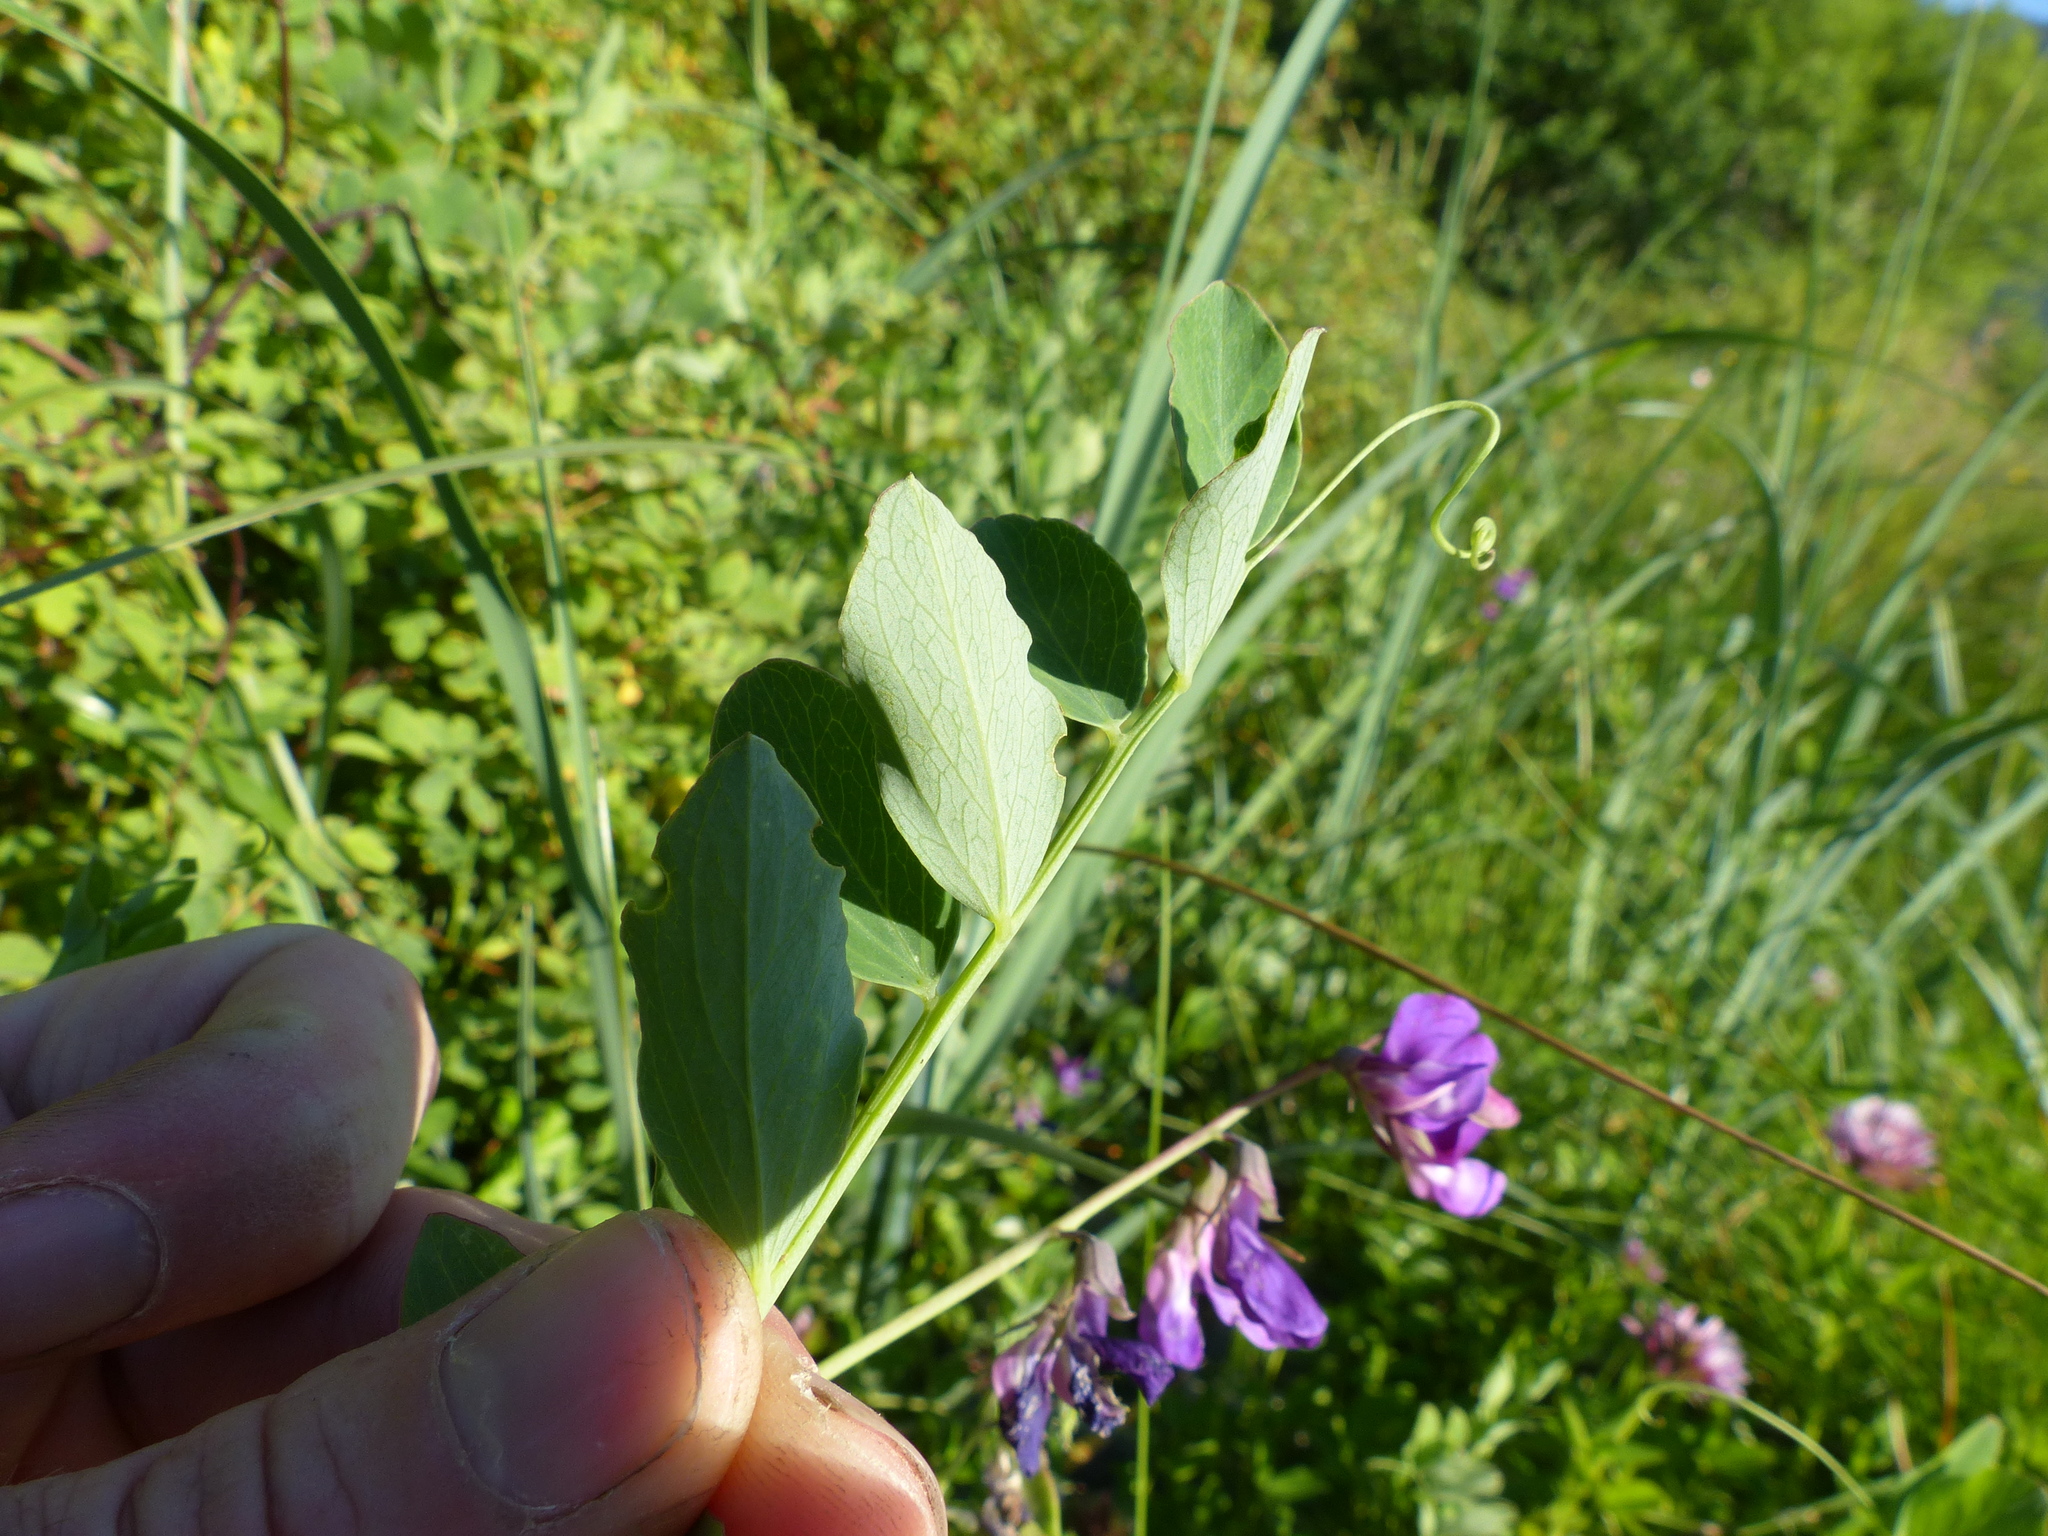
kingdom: Plantae
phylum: Tracheophyta
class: Magnoliopsida
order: Fabales
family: Fabaceae
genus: Lathyrus
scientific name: Lathyrus japonicus
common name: Sea pea
